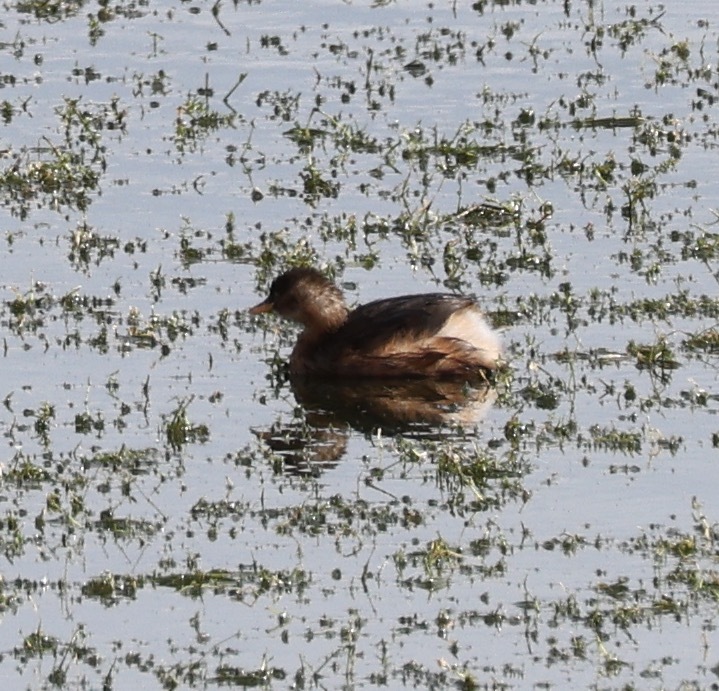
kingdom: Animalia
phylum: Chordata
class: Aves
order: Podicipediformes
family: Podicipedidae
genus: Tachybaptus
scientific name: Tachybaptus ruficollis
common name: Little grebe
